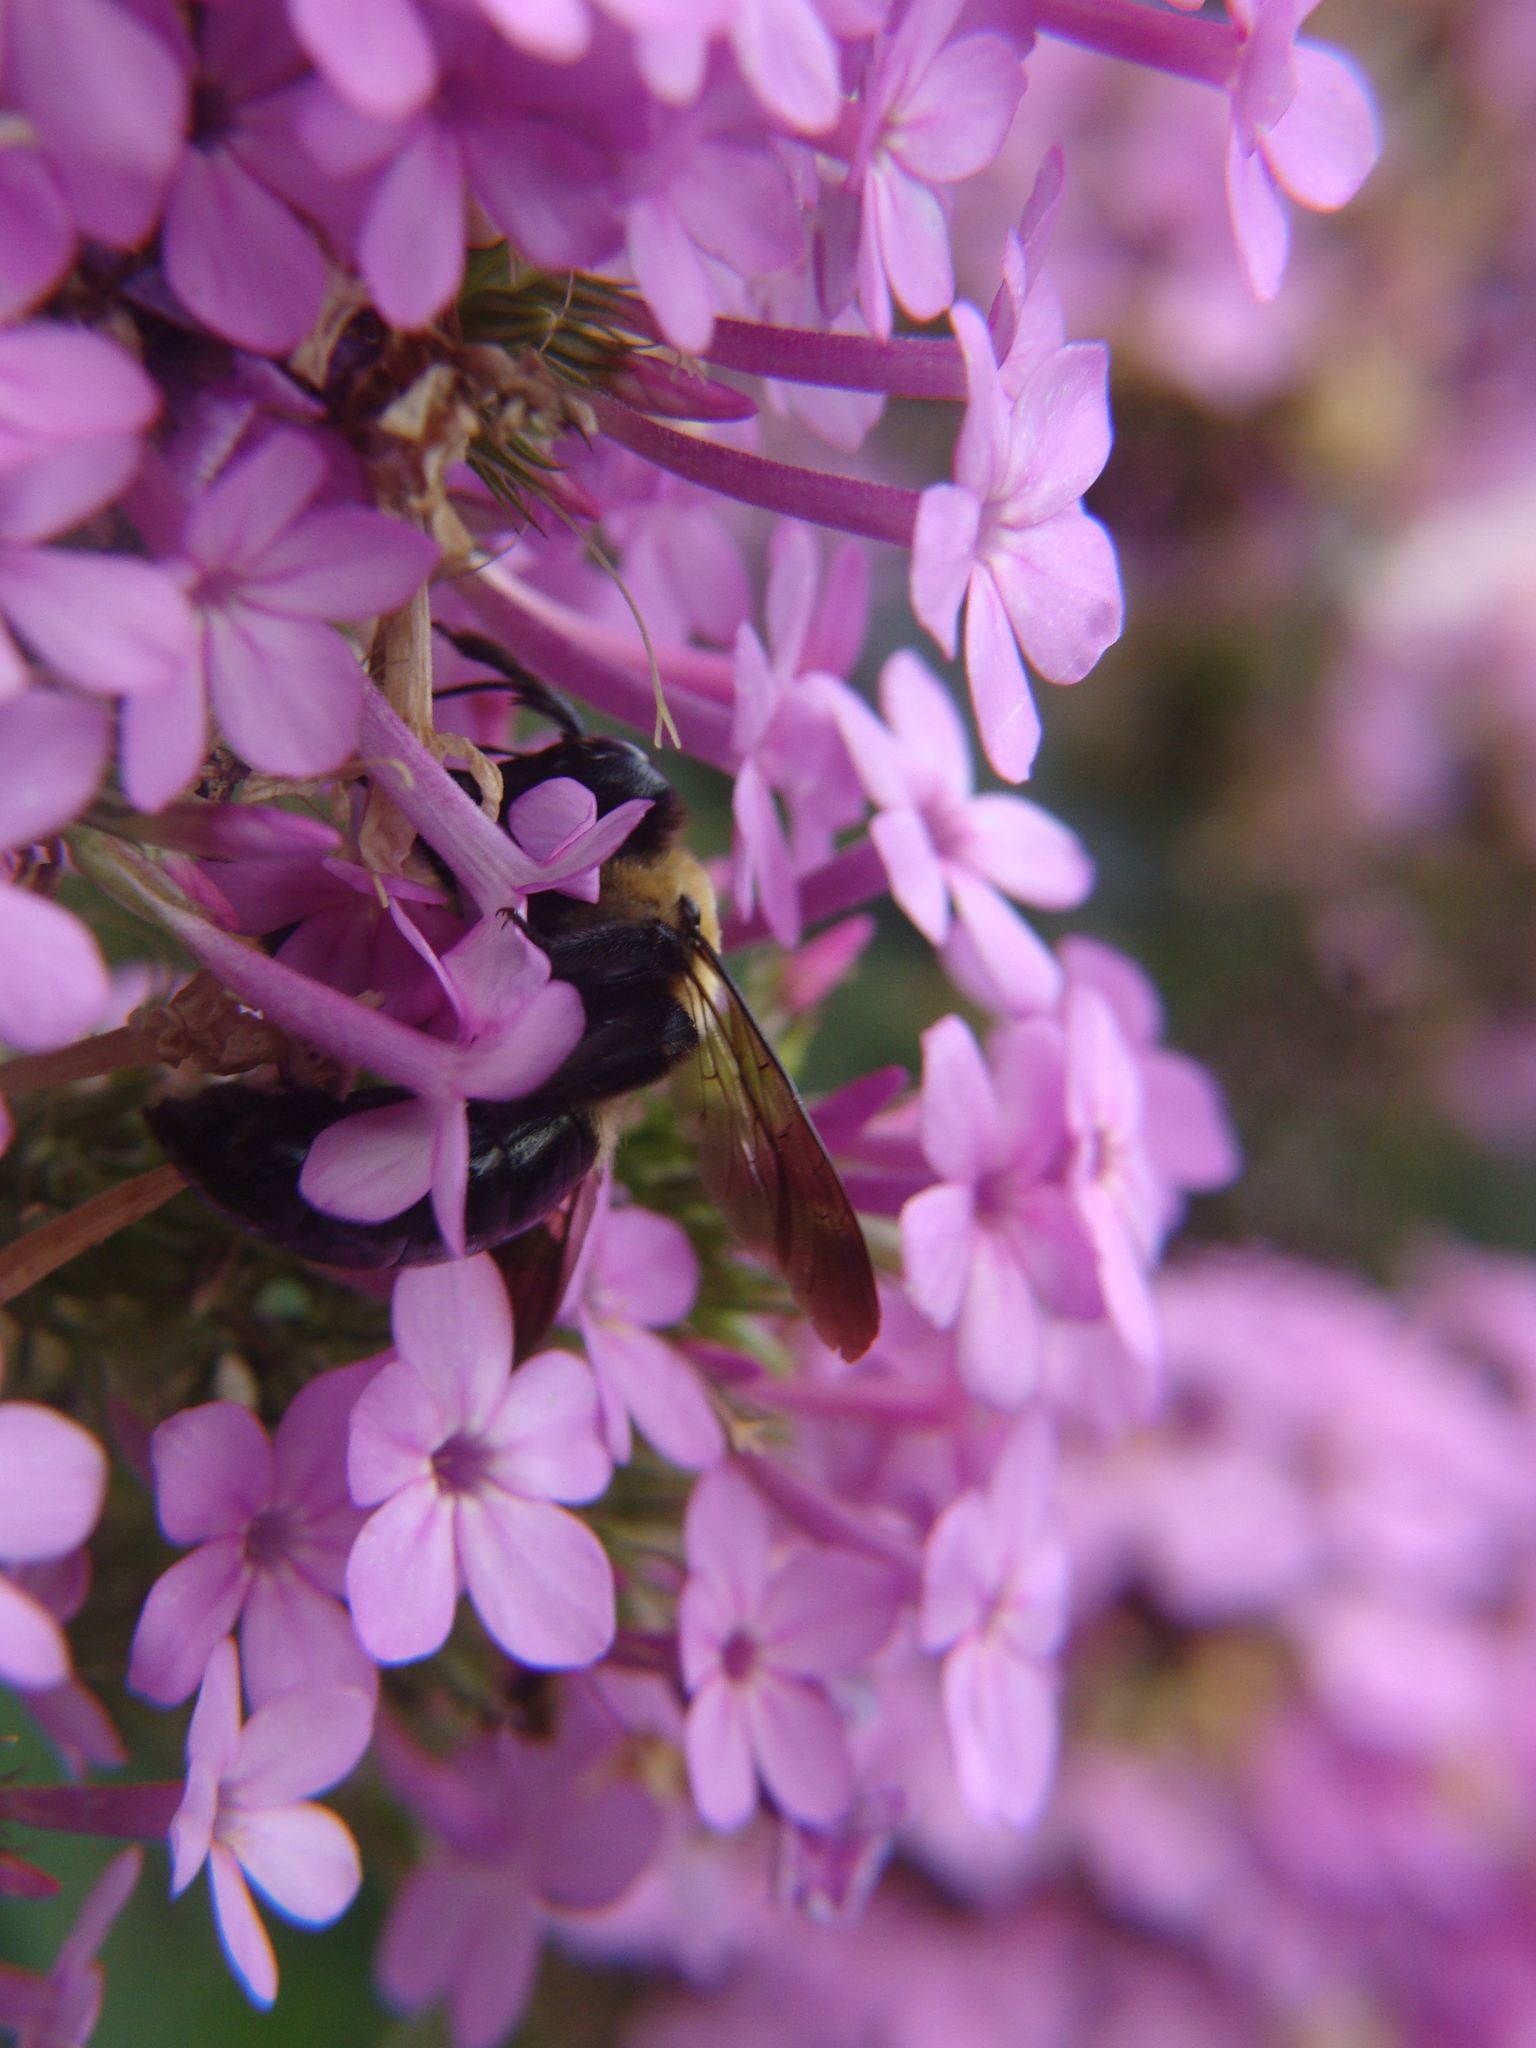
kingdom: Animalia
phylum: Arthropoda
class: Insecta
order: Hymenoptera
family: Apidae
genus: Xylocopa
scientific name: Xylocopa virginica
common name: Carpenter bee
